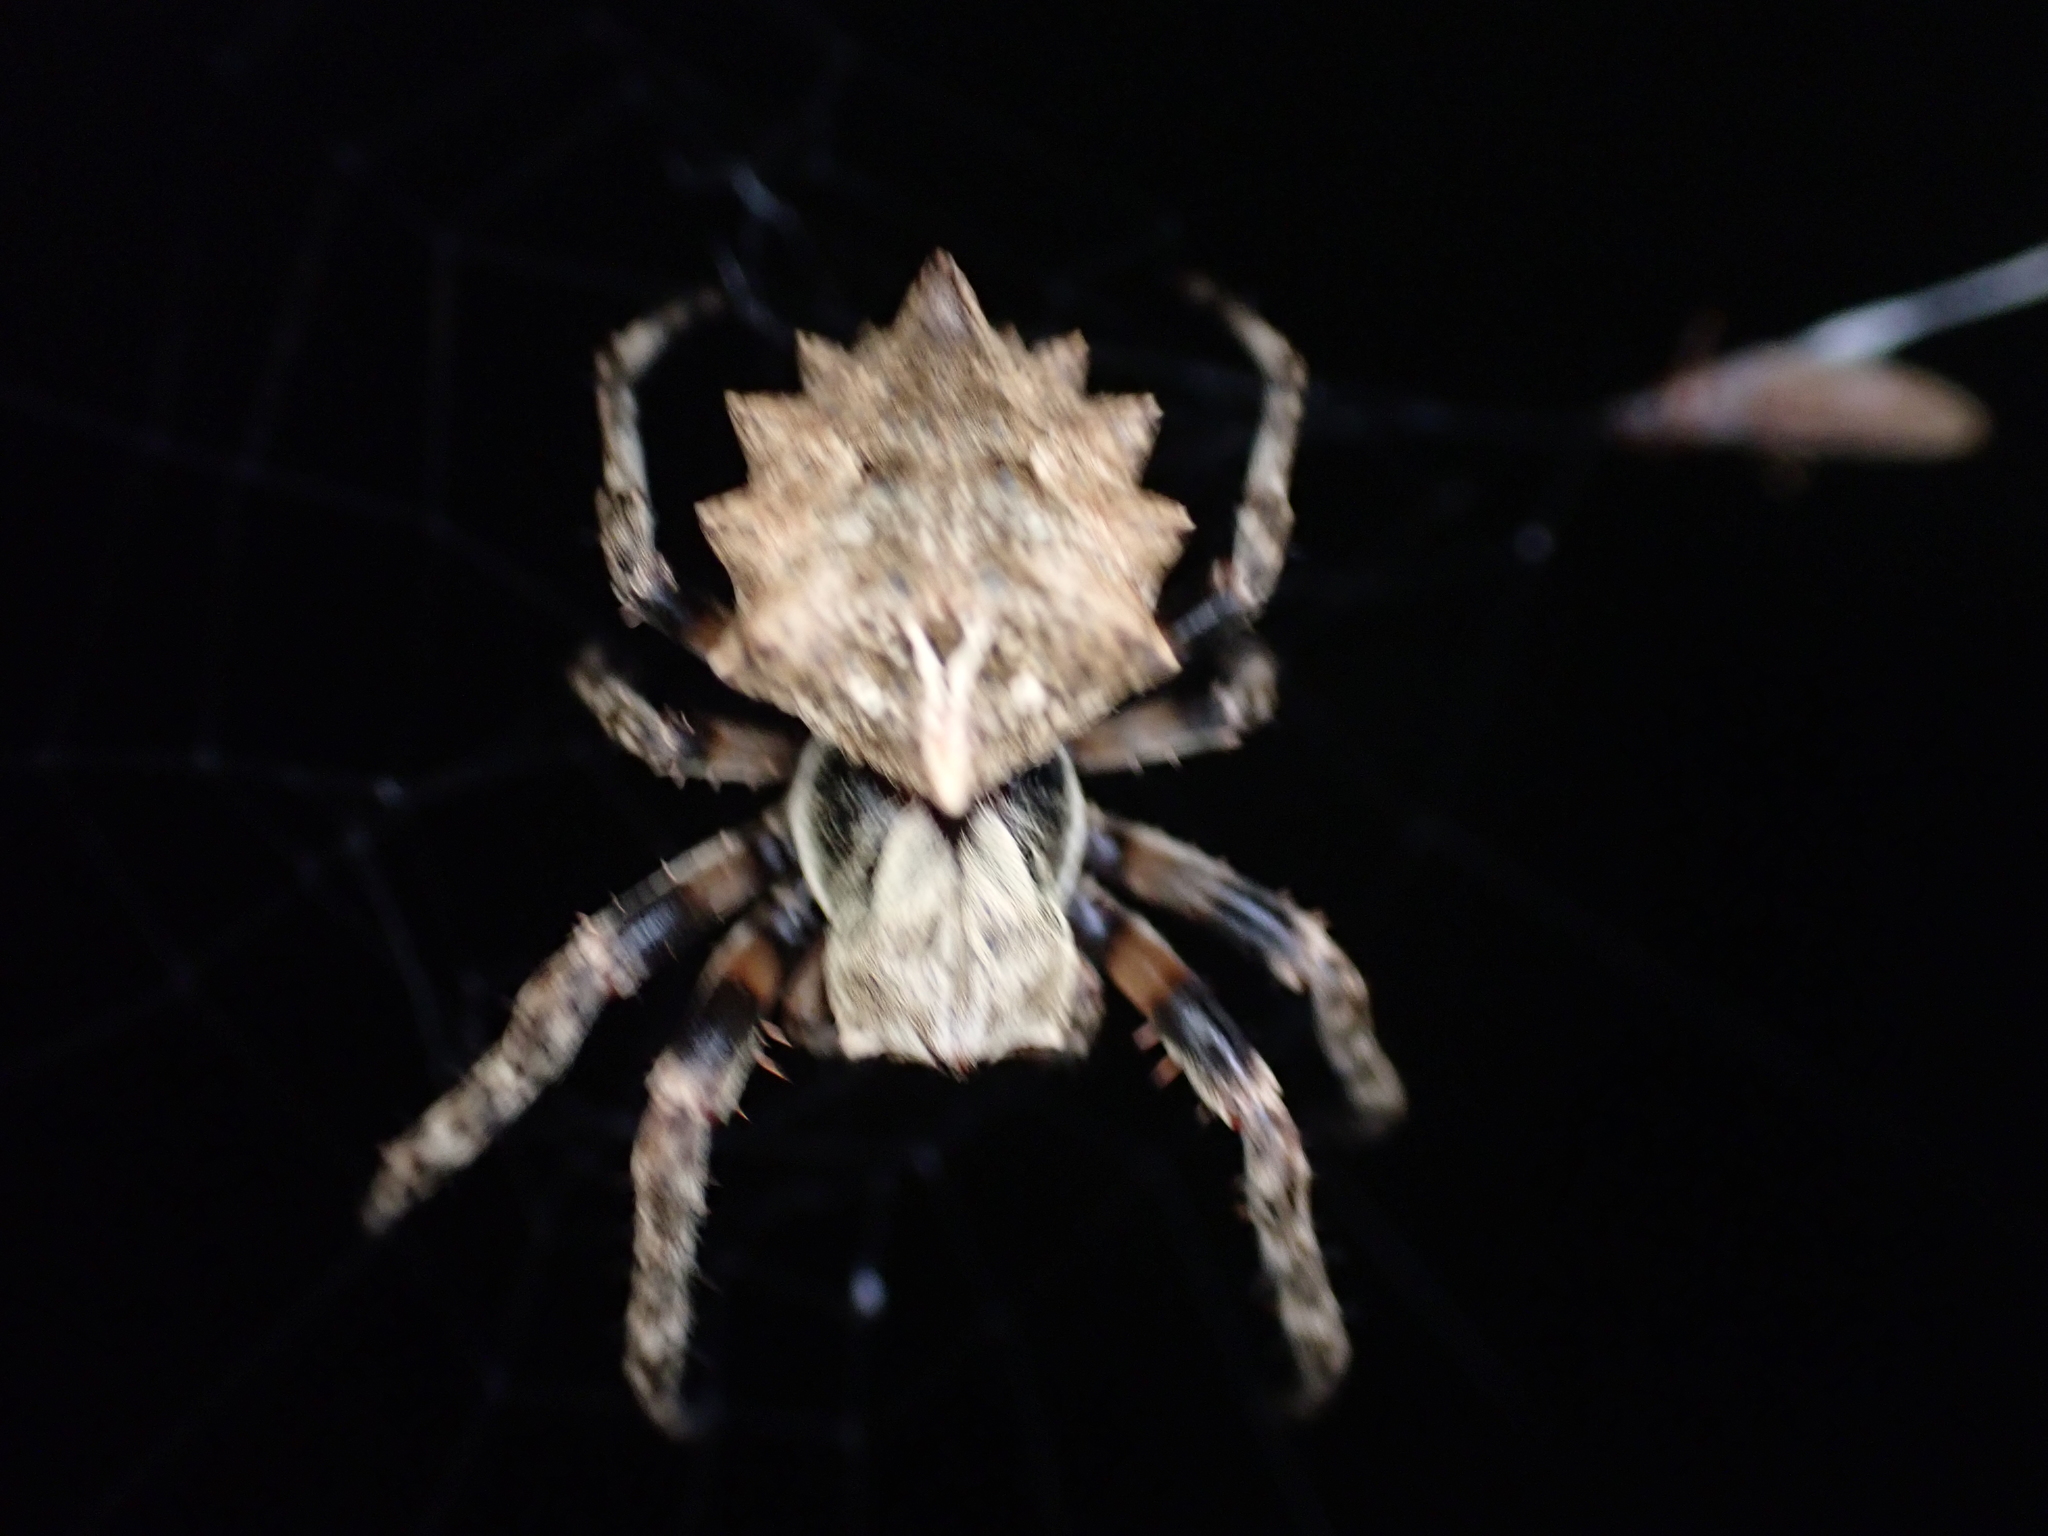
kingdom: Animalia
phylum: Arthropoda
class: Arachnida
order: Araneae
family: Araneidae
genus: Acanthepeira
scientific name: Acanthepeira stellata
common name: Starbellied orbweaver
